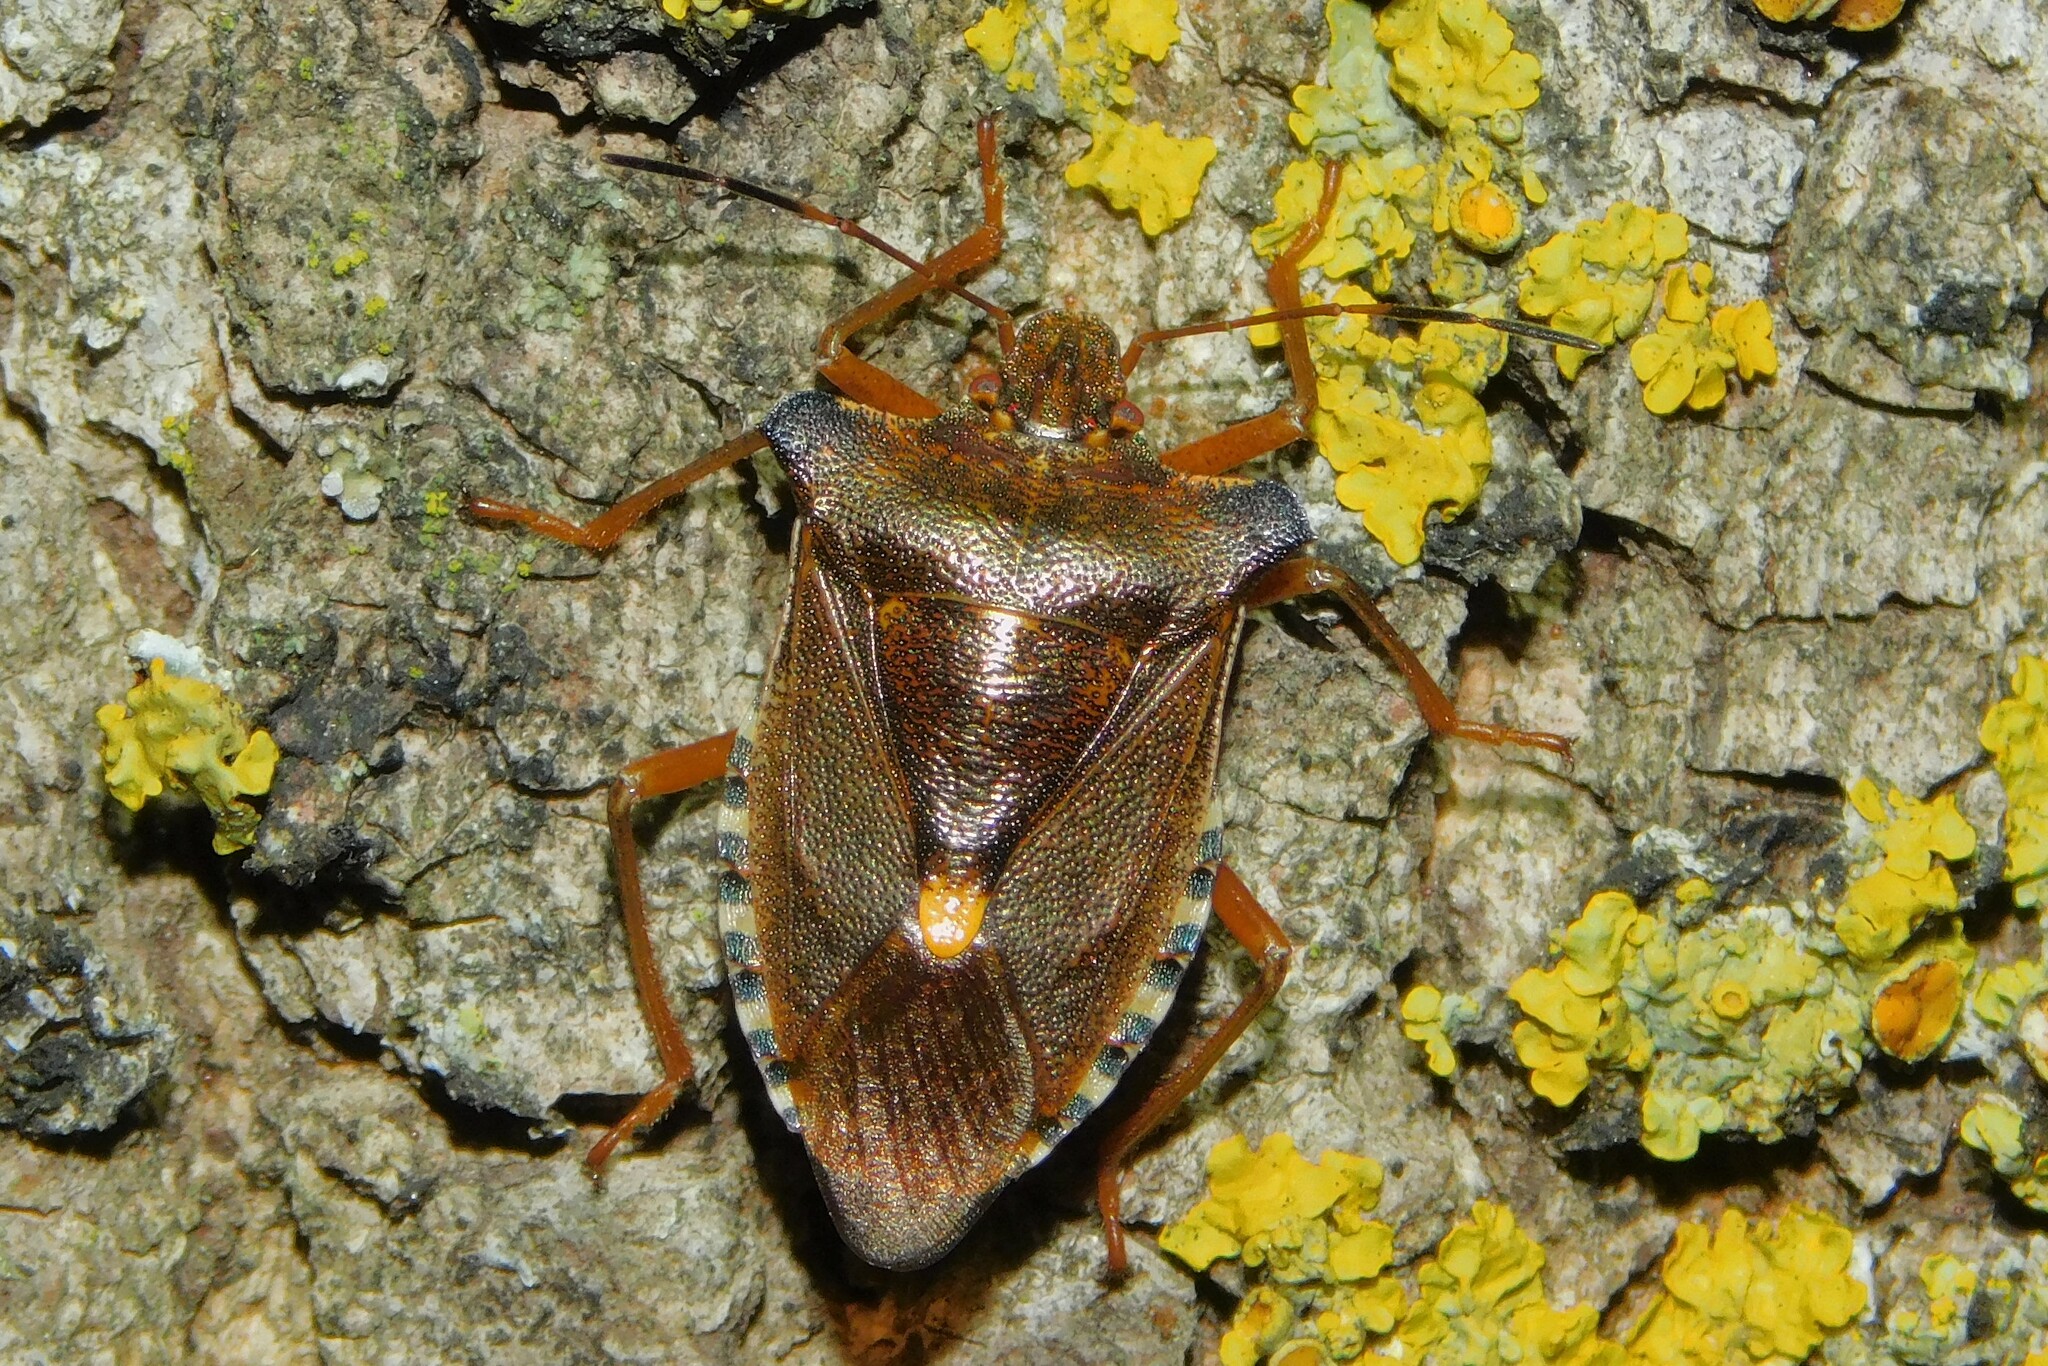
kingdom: Animalia
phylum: Arthropoda
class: Insecta
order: Hemiptera
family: Pentatomidae
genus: Pentatoma
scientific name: Pentatoma rufipes
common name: Forest bug
